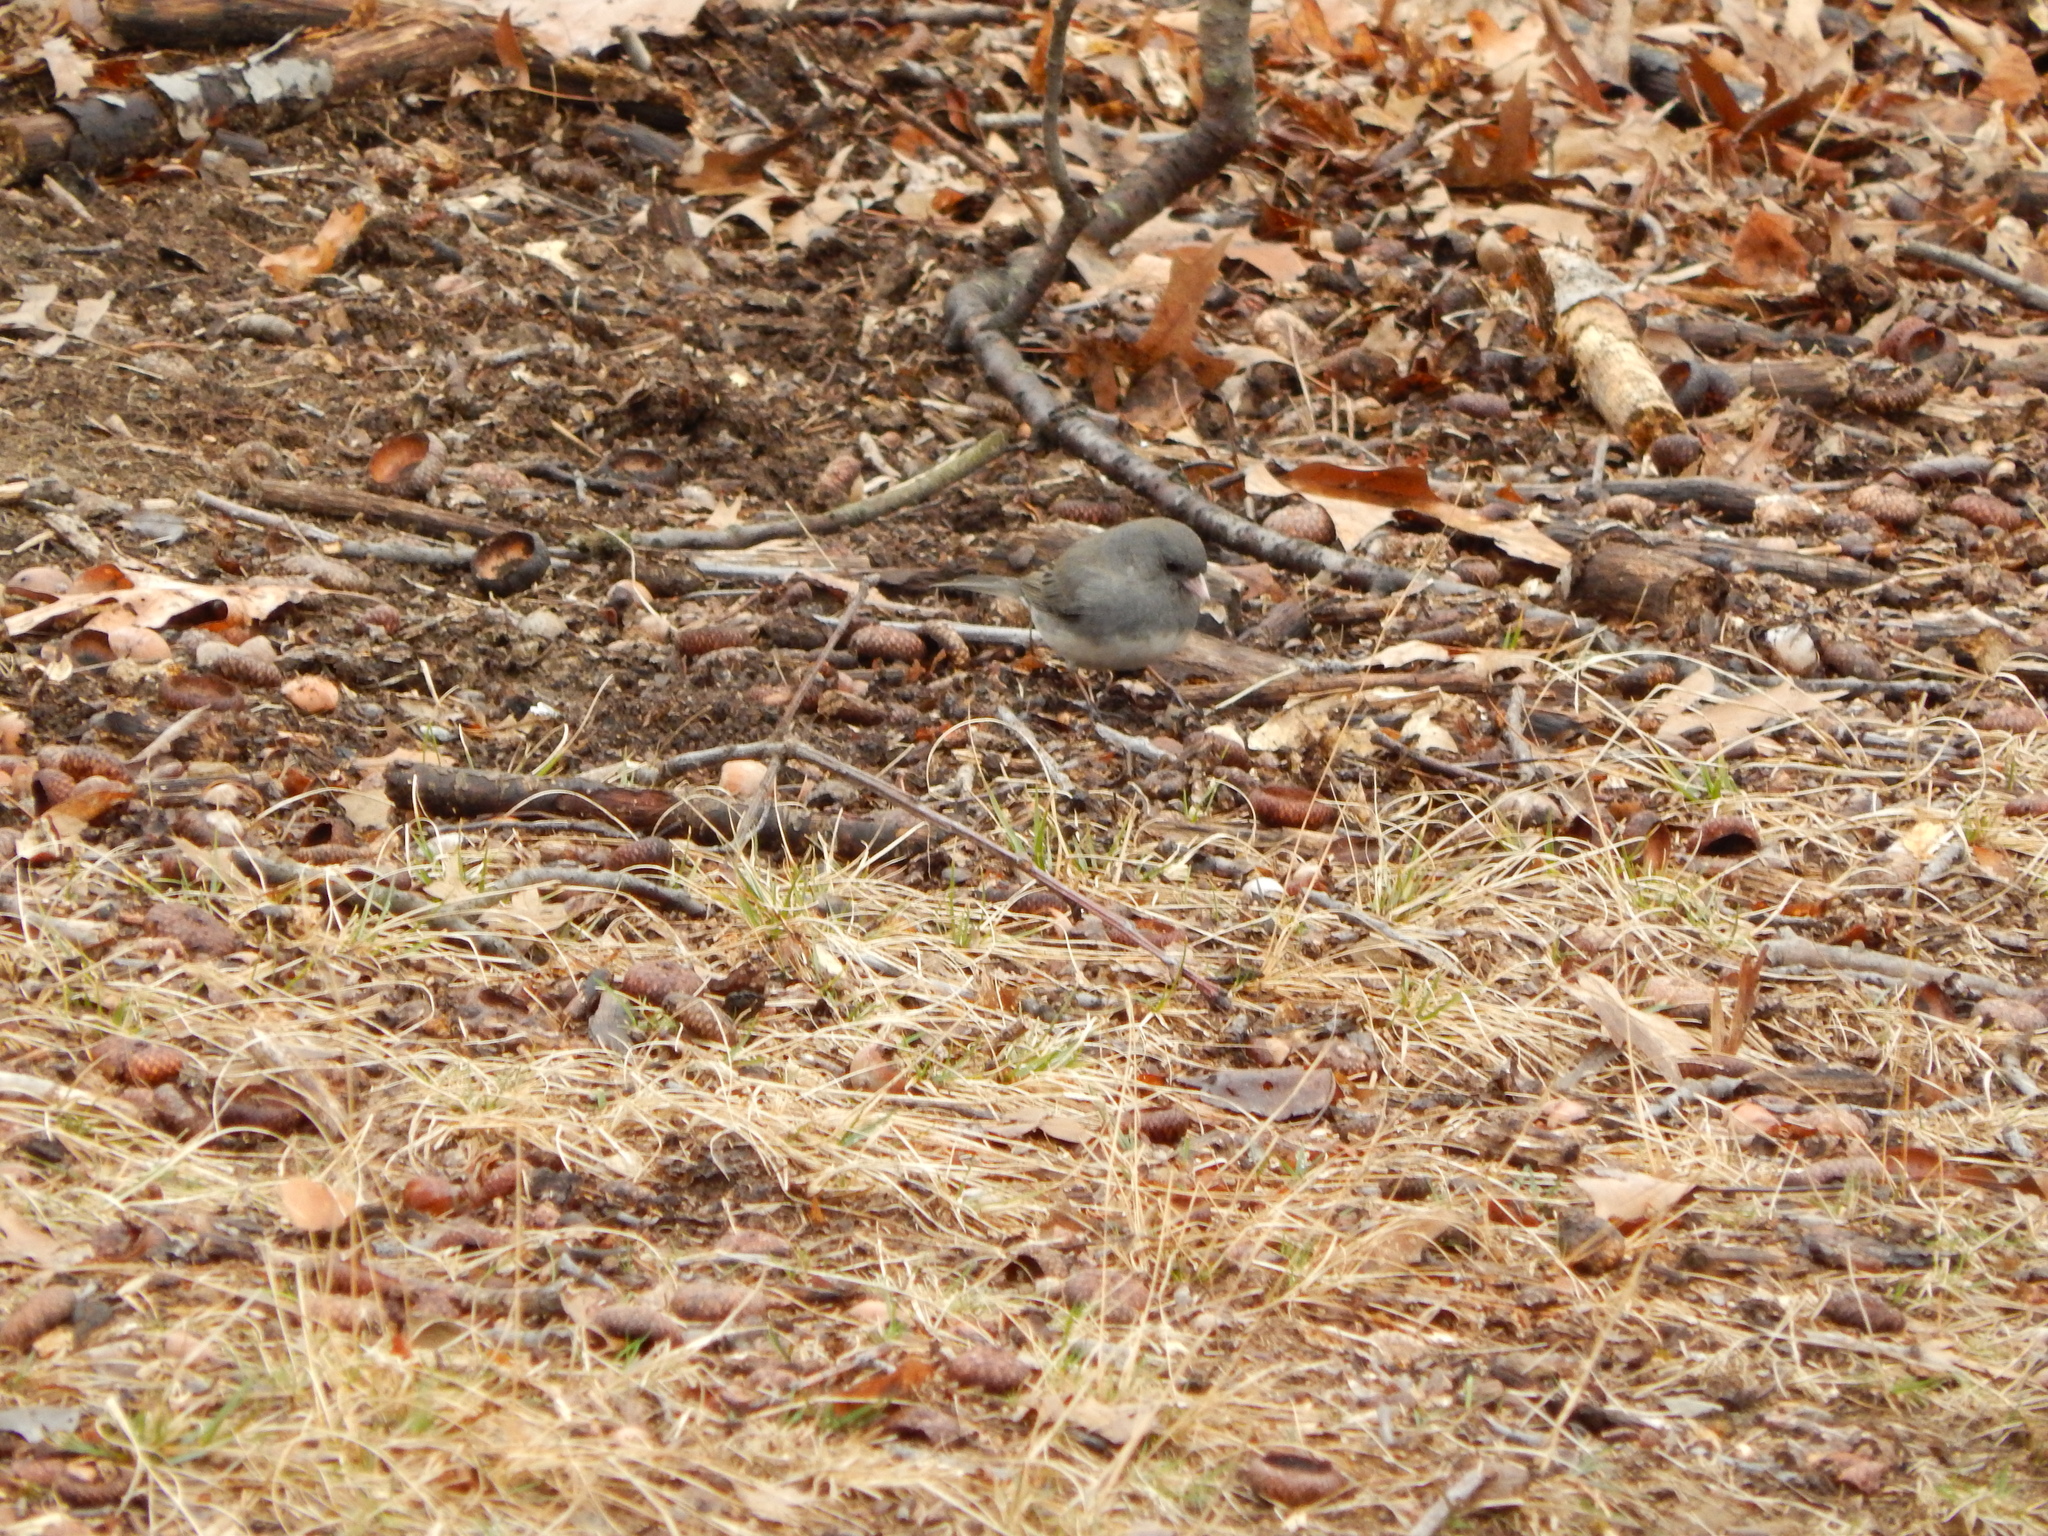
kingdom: Animalia
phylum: Chordata
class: Aves
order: Passeriformes
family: Passerellidae
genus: Junco
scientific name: Junco hyemalis
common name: Dark-eyed junco
